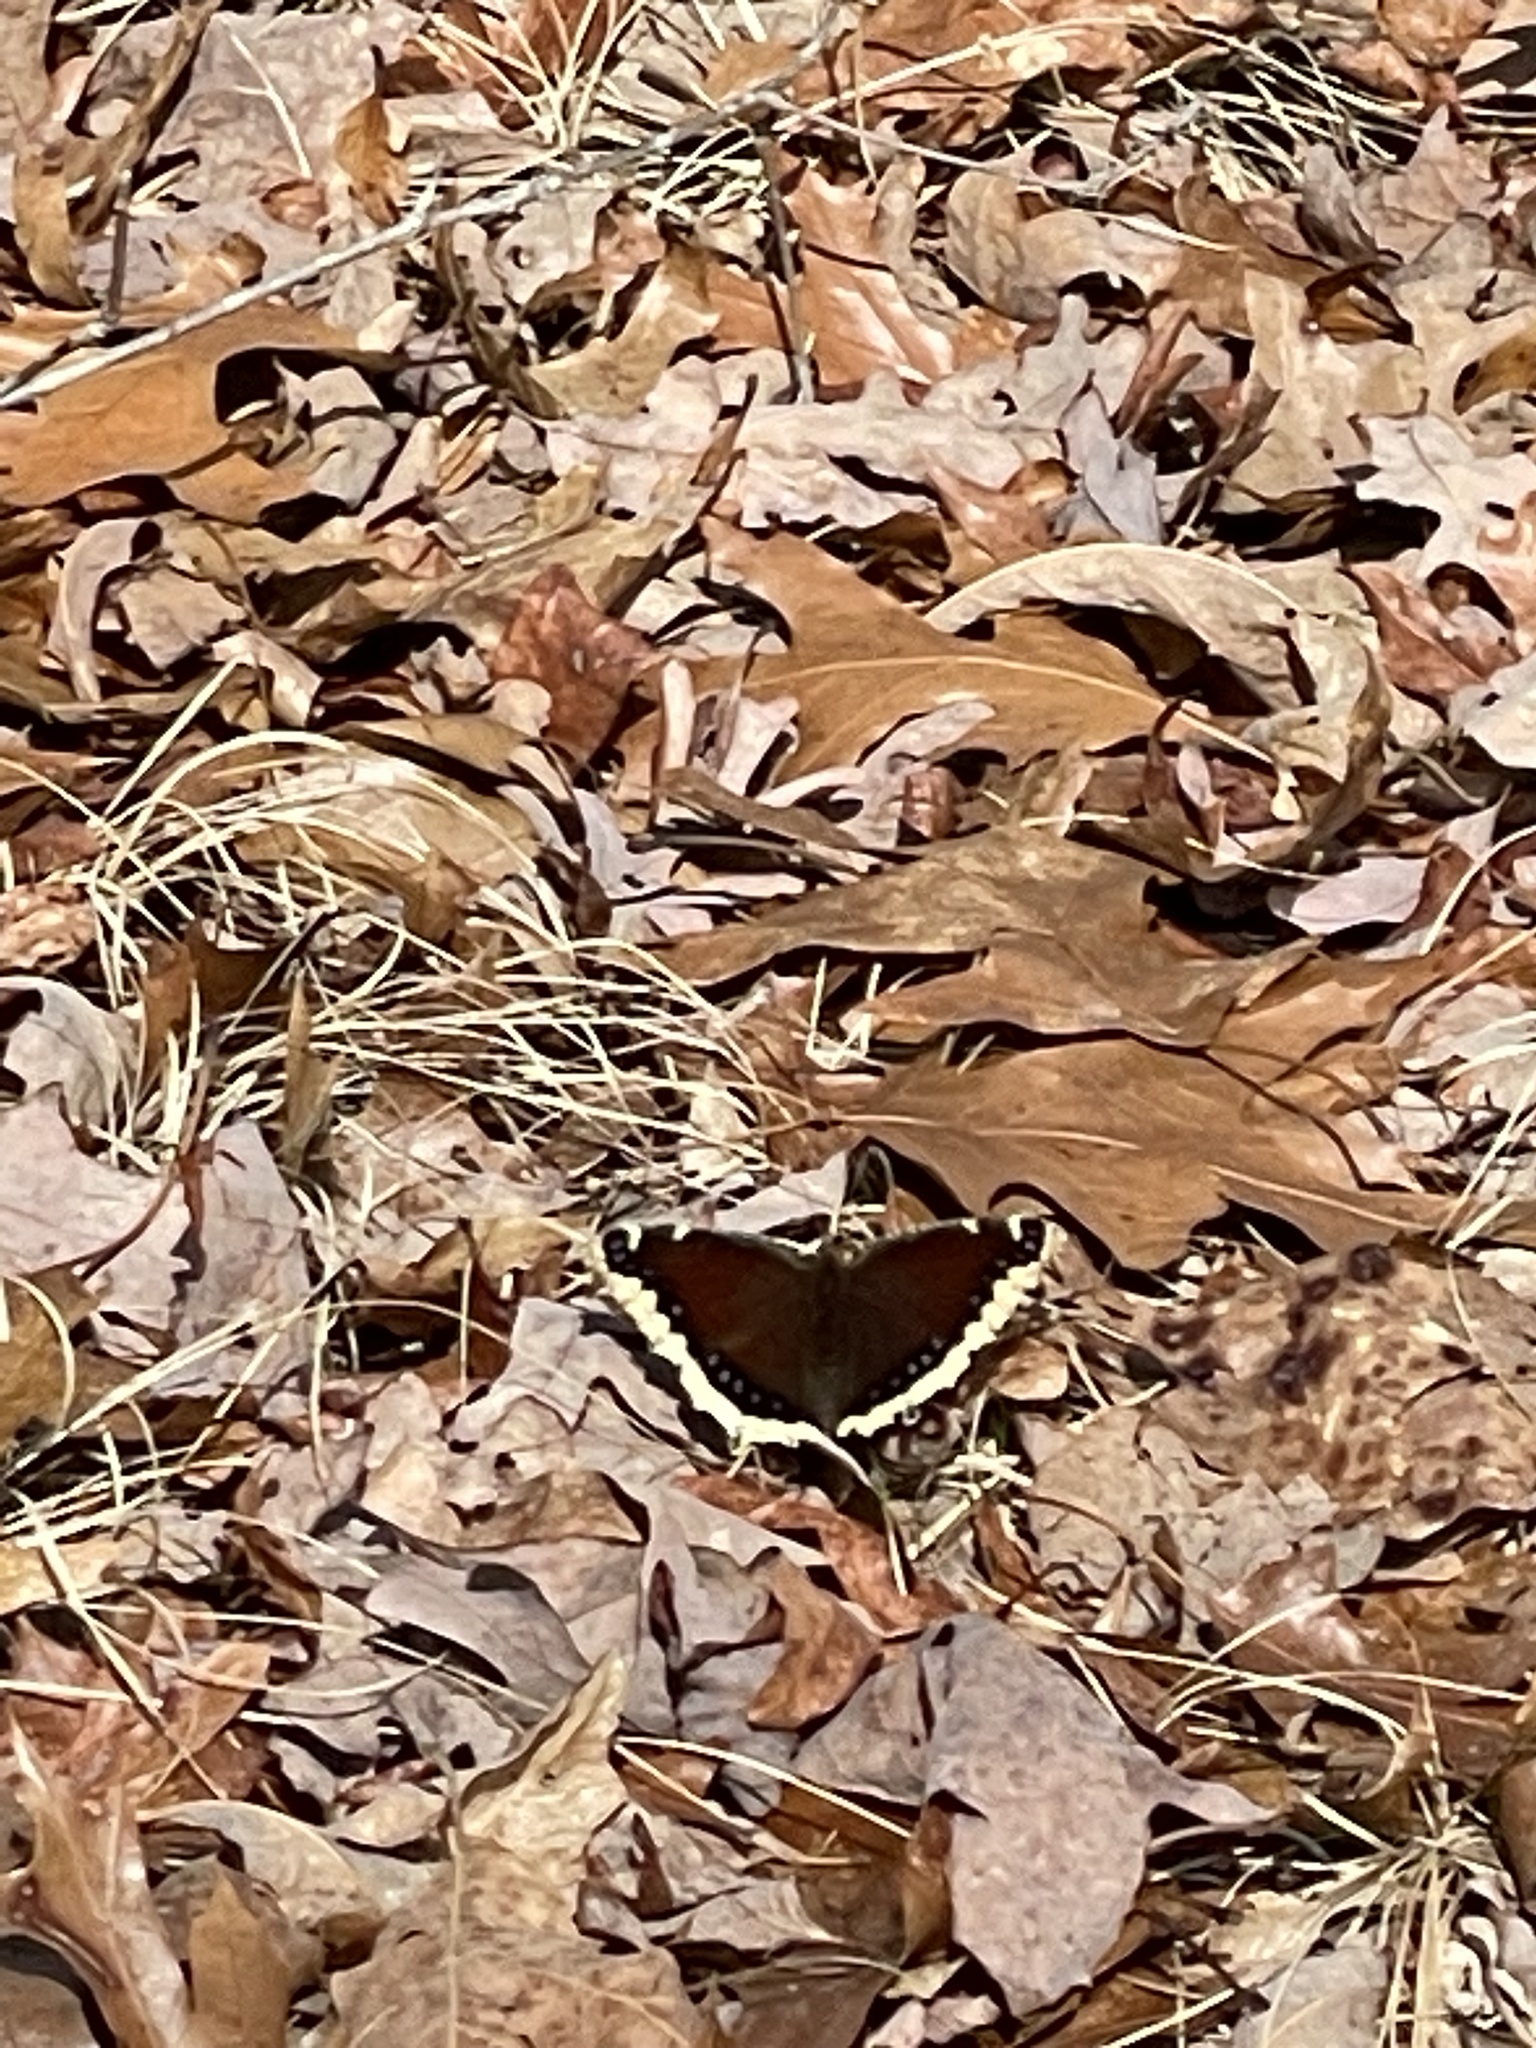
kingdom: Animalia
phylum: Arthropoda
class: Insecta
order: Lepidoptera
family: Nymphalidae
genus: Nymphalis
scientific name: Nymphalis antiopa
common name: Camberwell beauty
